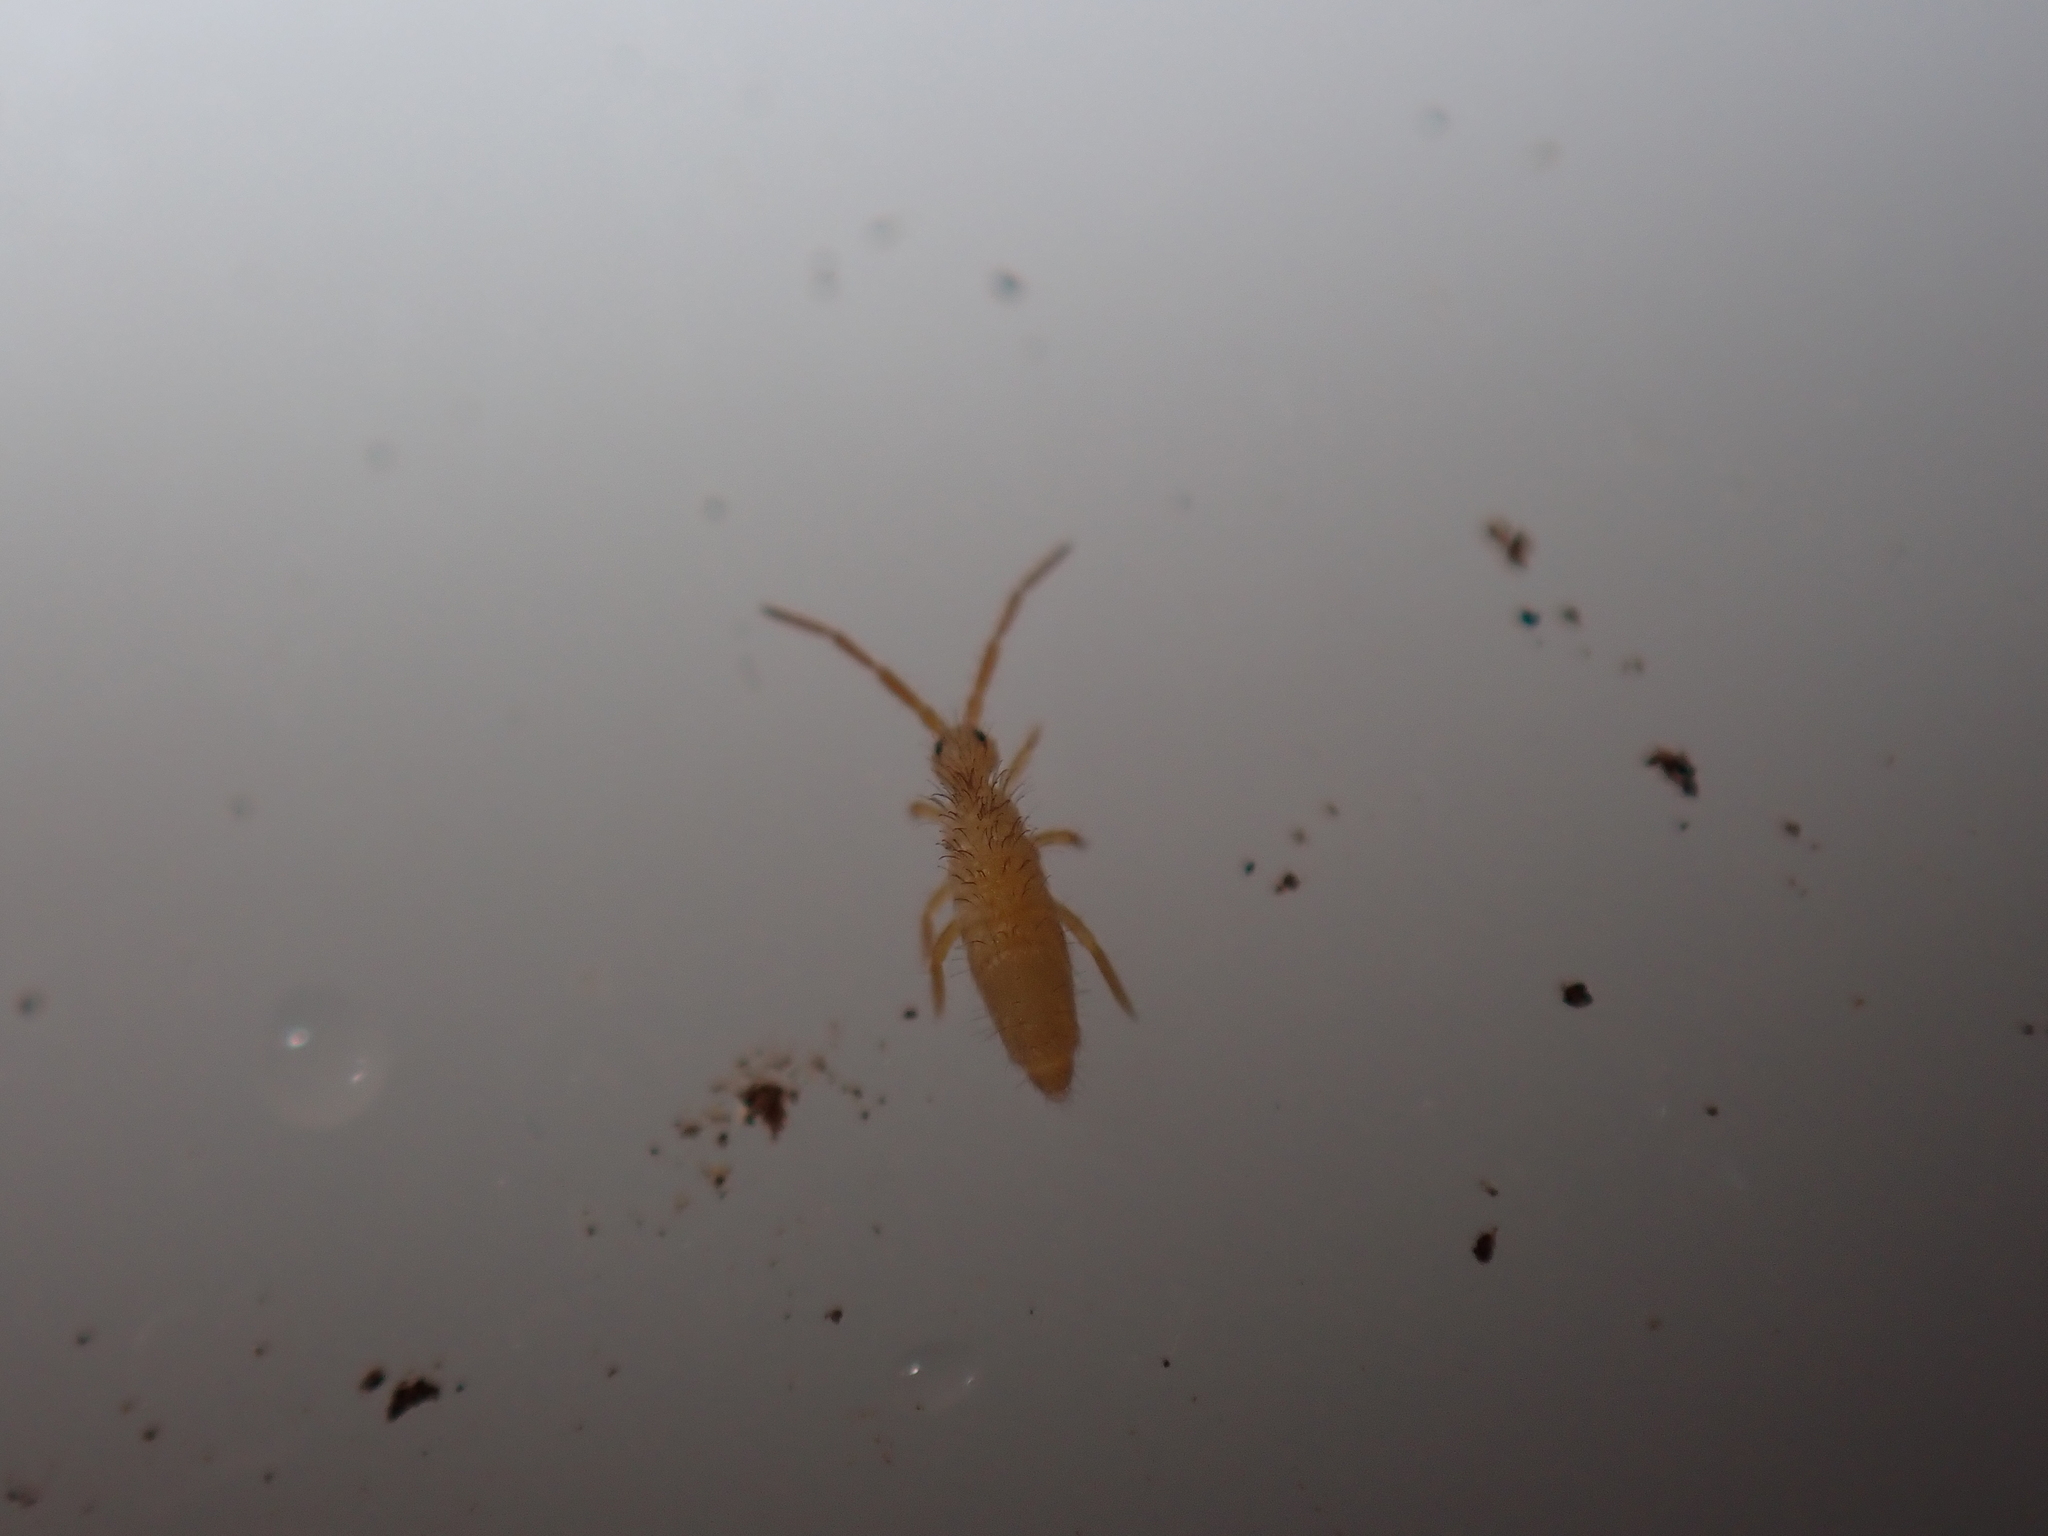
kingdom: Animalia
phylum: Arthropoda
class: Collembola
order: Entomobryomorpha
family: Entomobryidae
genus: Entomobrya
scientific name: Entomobrya lanuginosa
